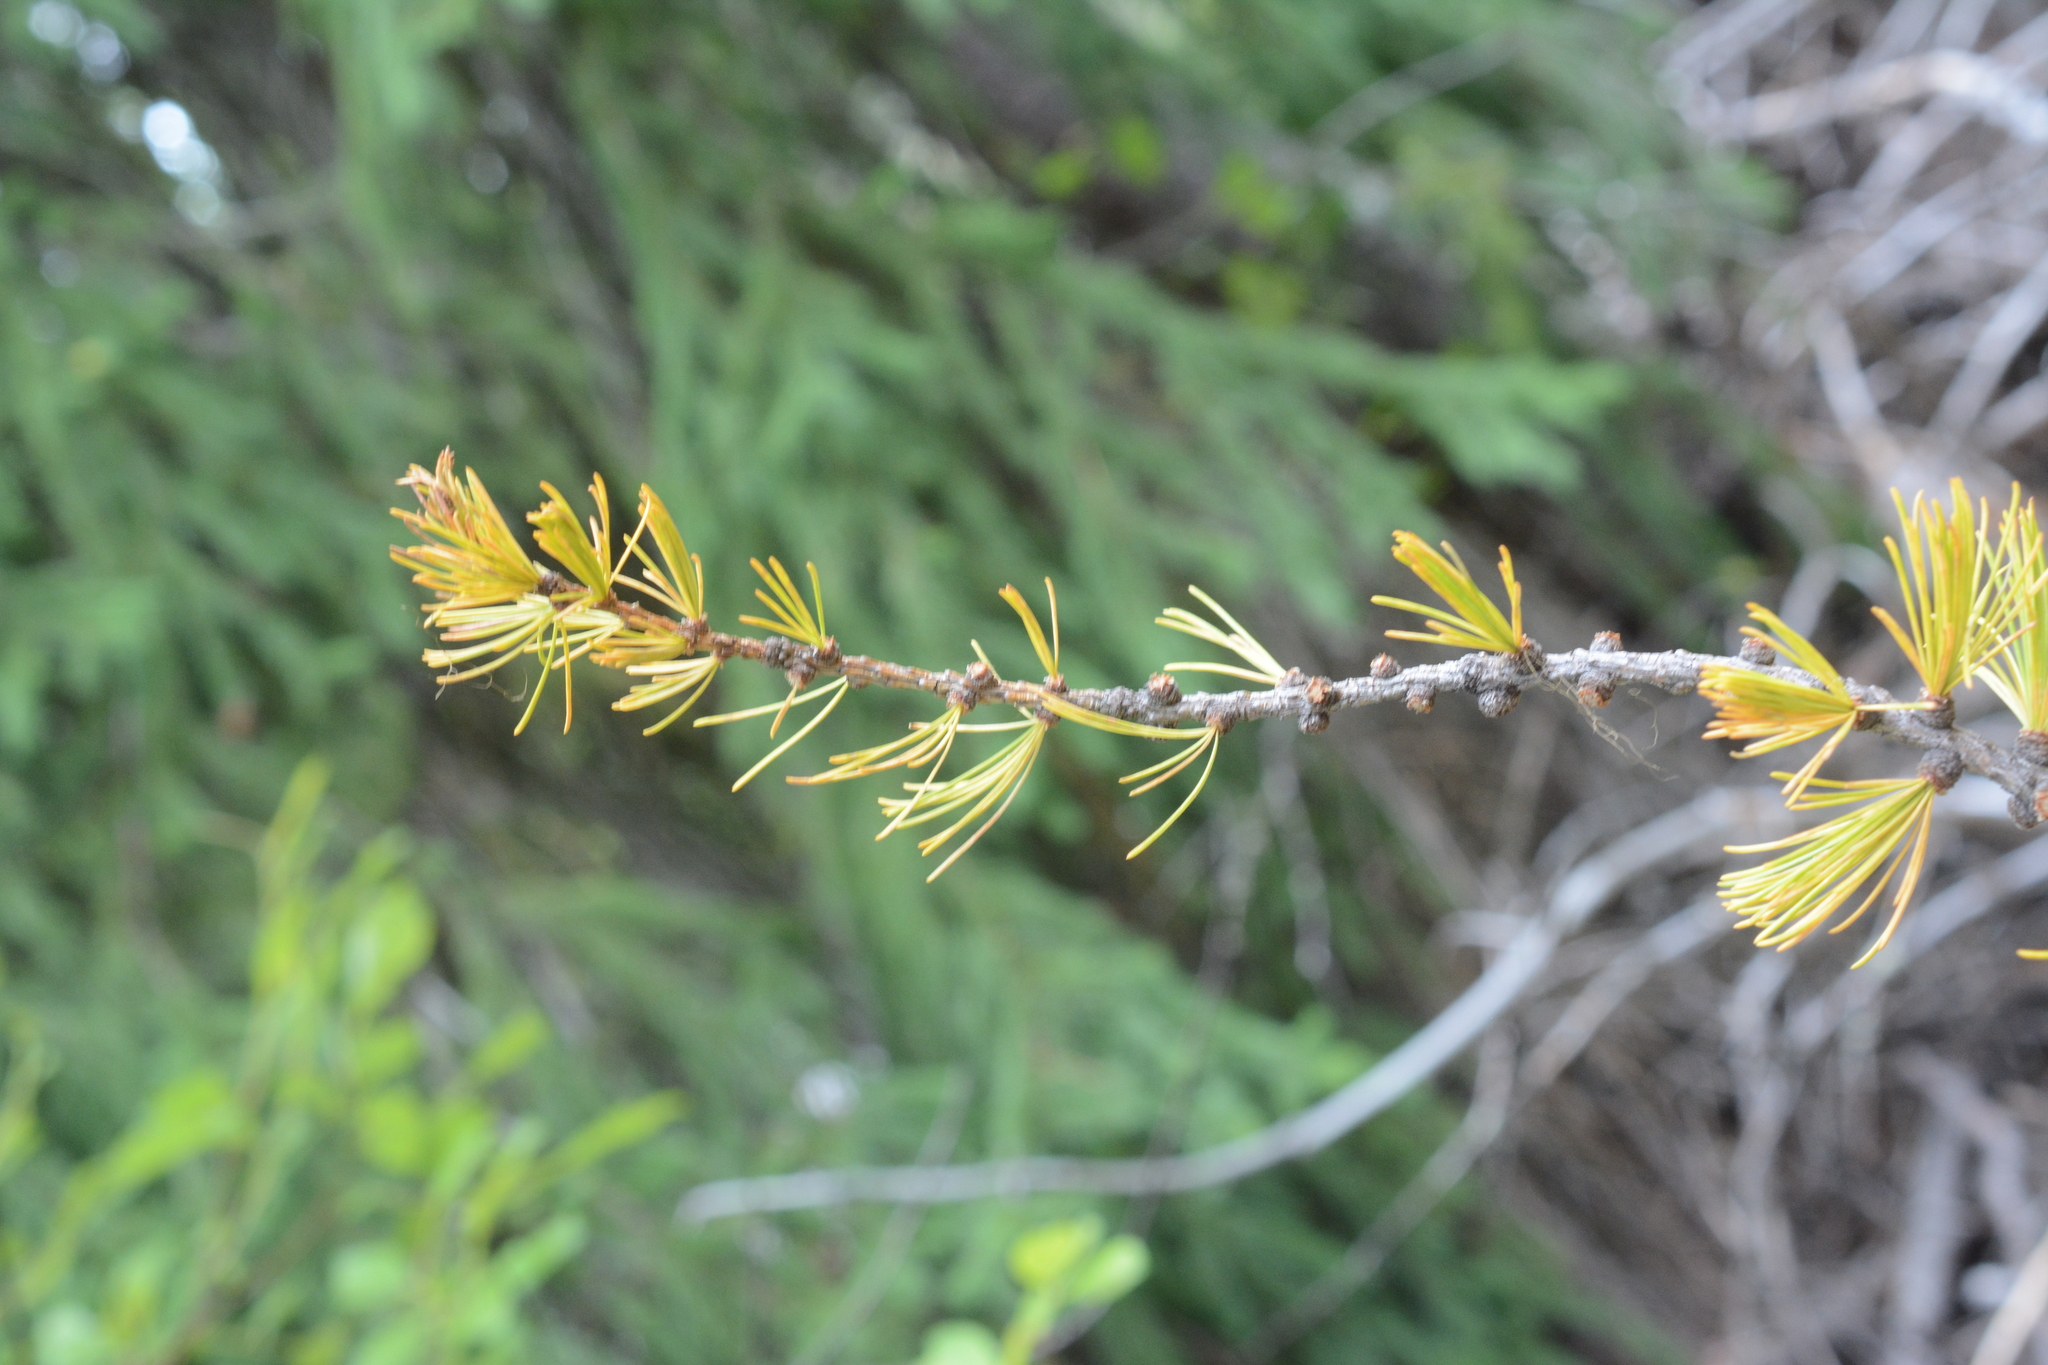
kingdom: Plantae
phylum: Tracheophyta
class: Pinopsida
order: Pinales
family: Pinaceae
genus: Larix
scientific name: Larix occidentalis
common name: Western larch
